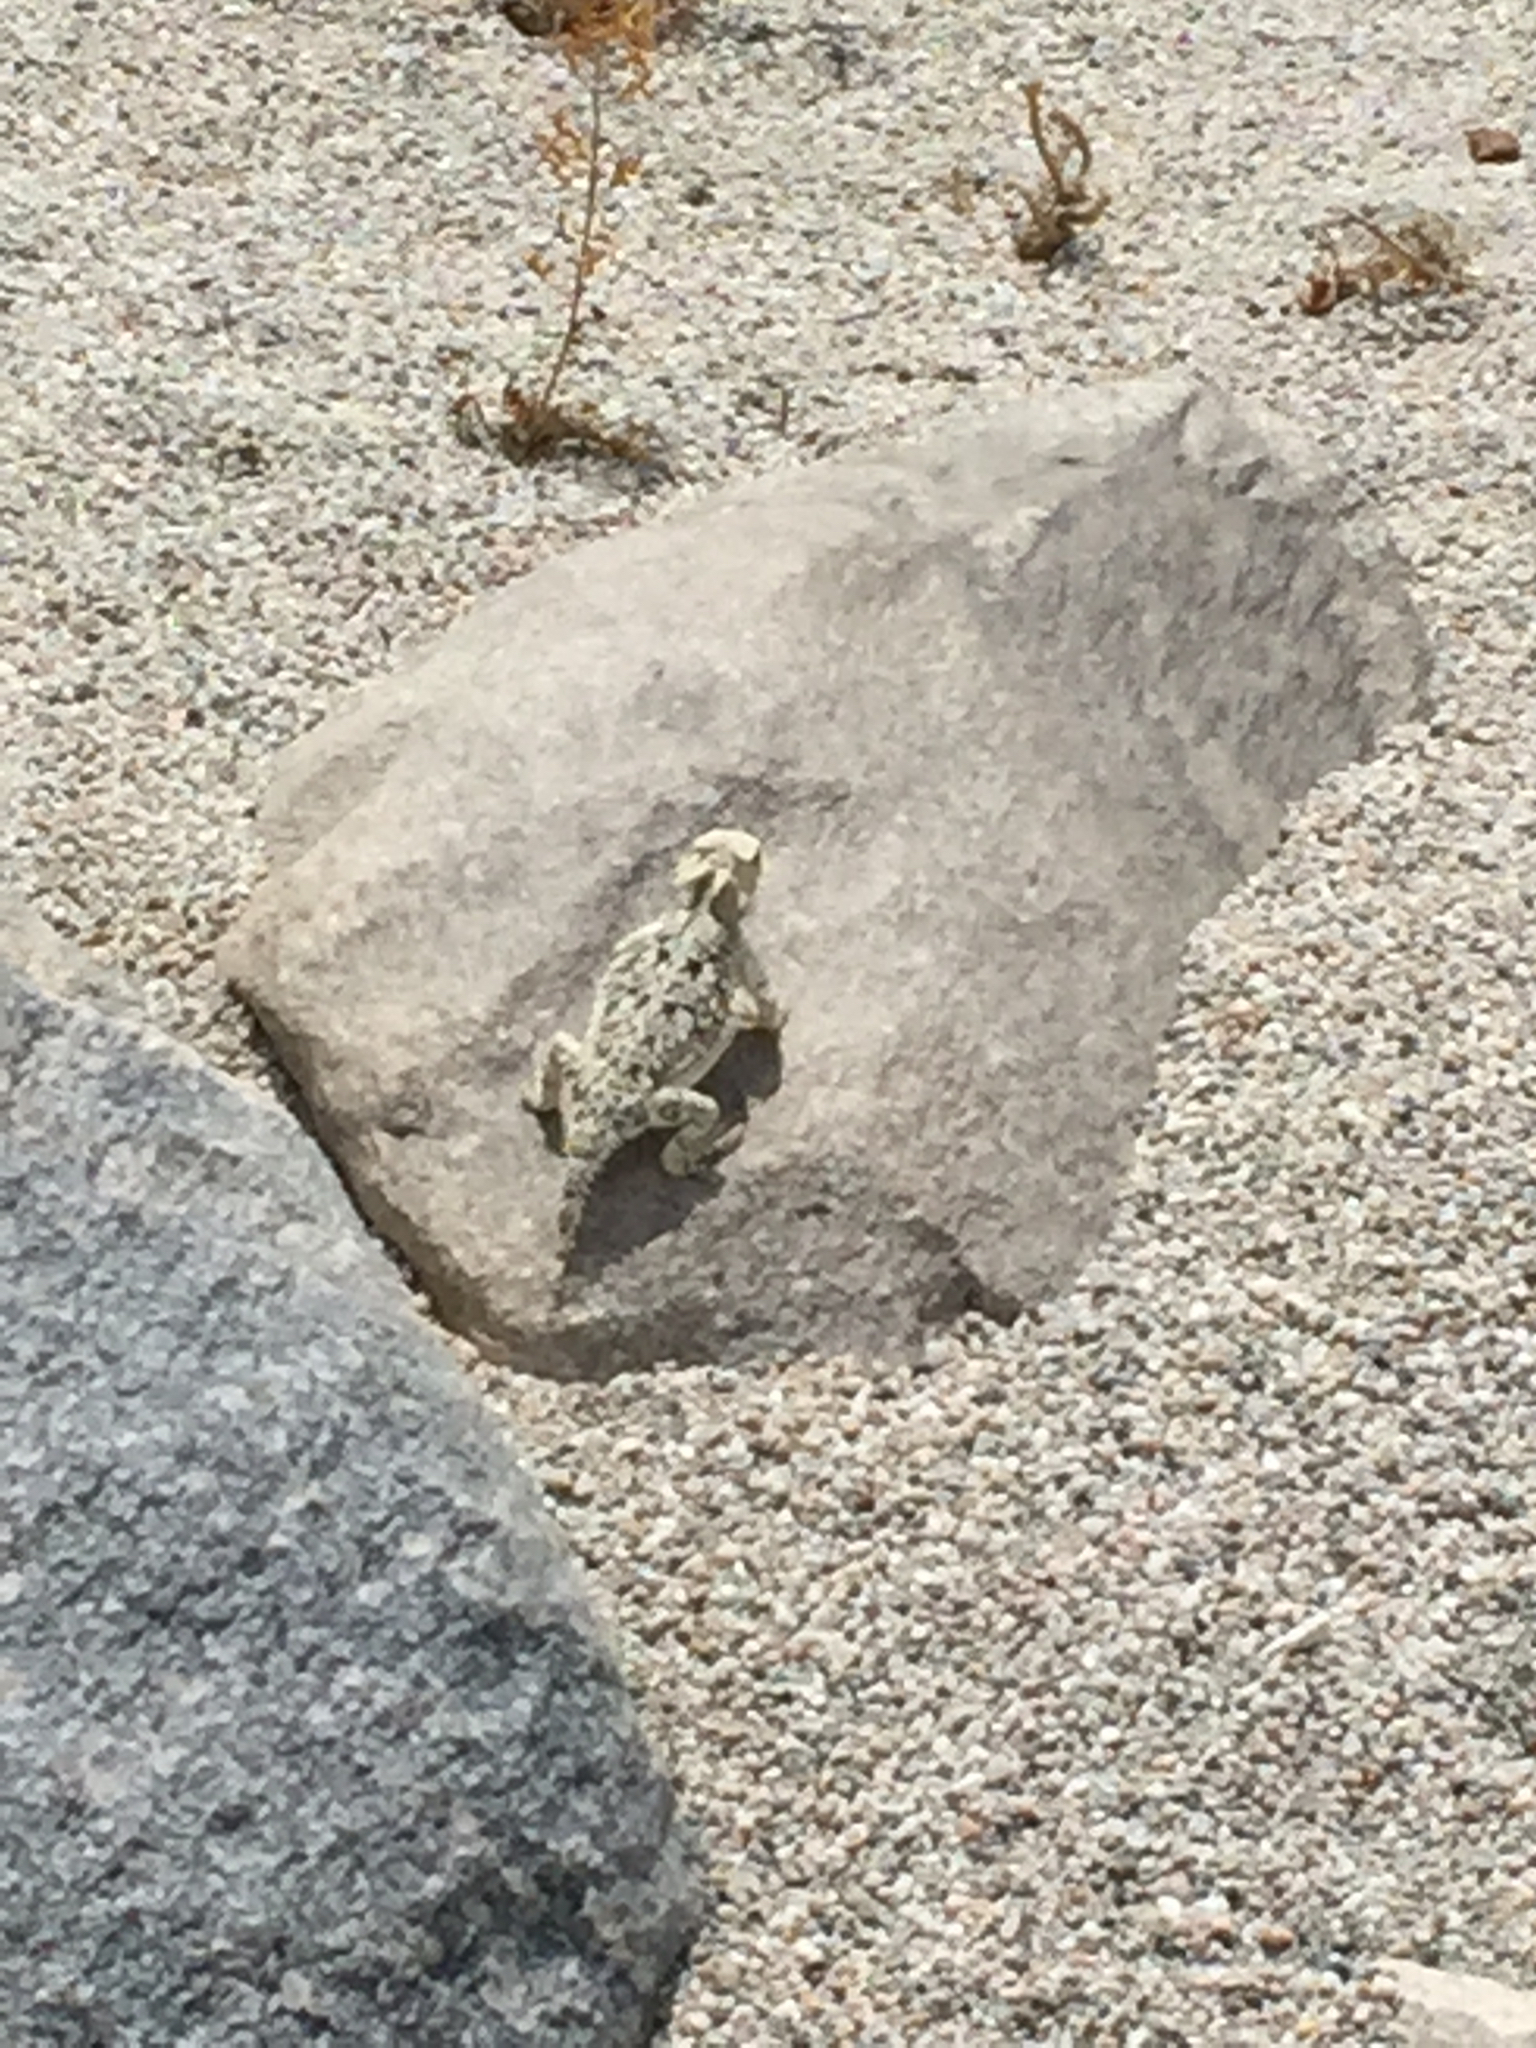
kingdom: Animalia
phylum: Chordata
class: Squamata
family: Phrynosomatidae
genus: Phrynosoma
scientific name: Phrynosoma platyrhinos
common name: Desert horned lizard
